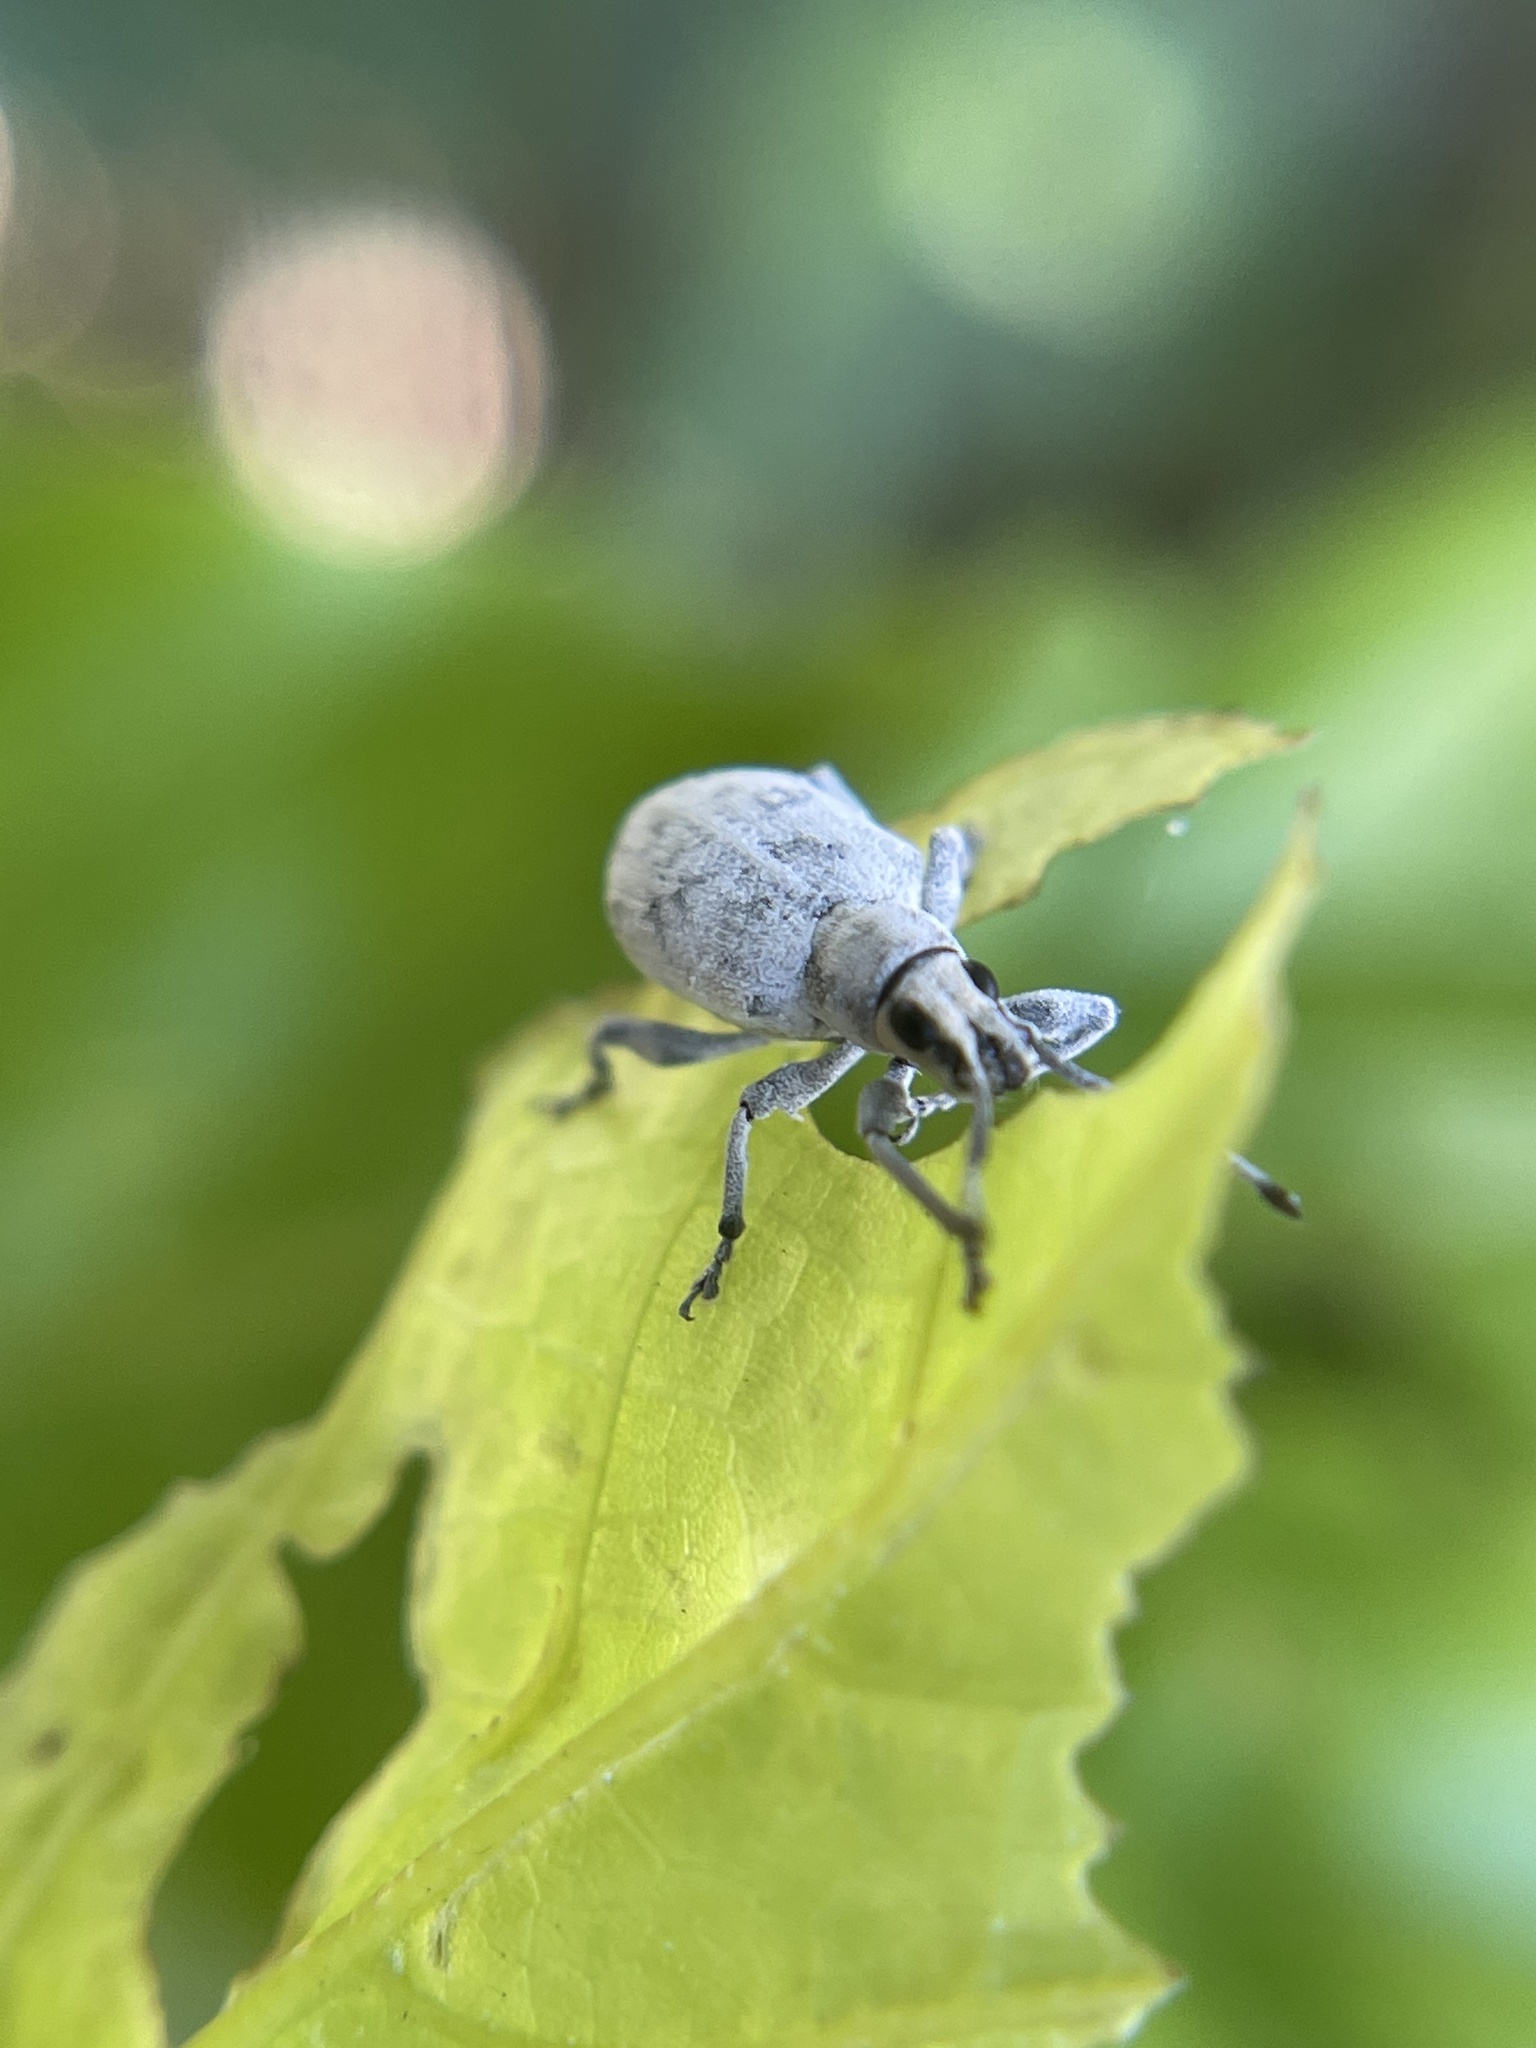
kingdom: Animalia
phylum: Arthropoda
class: Insecta
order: Coleoptera
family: Curculionidae
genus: Myllocerus
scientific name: Myllocerus undecimpustulatus
